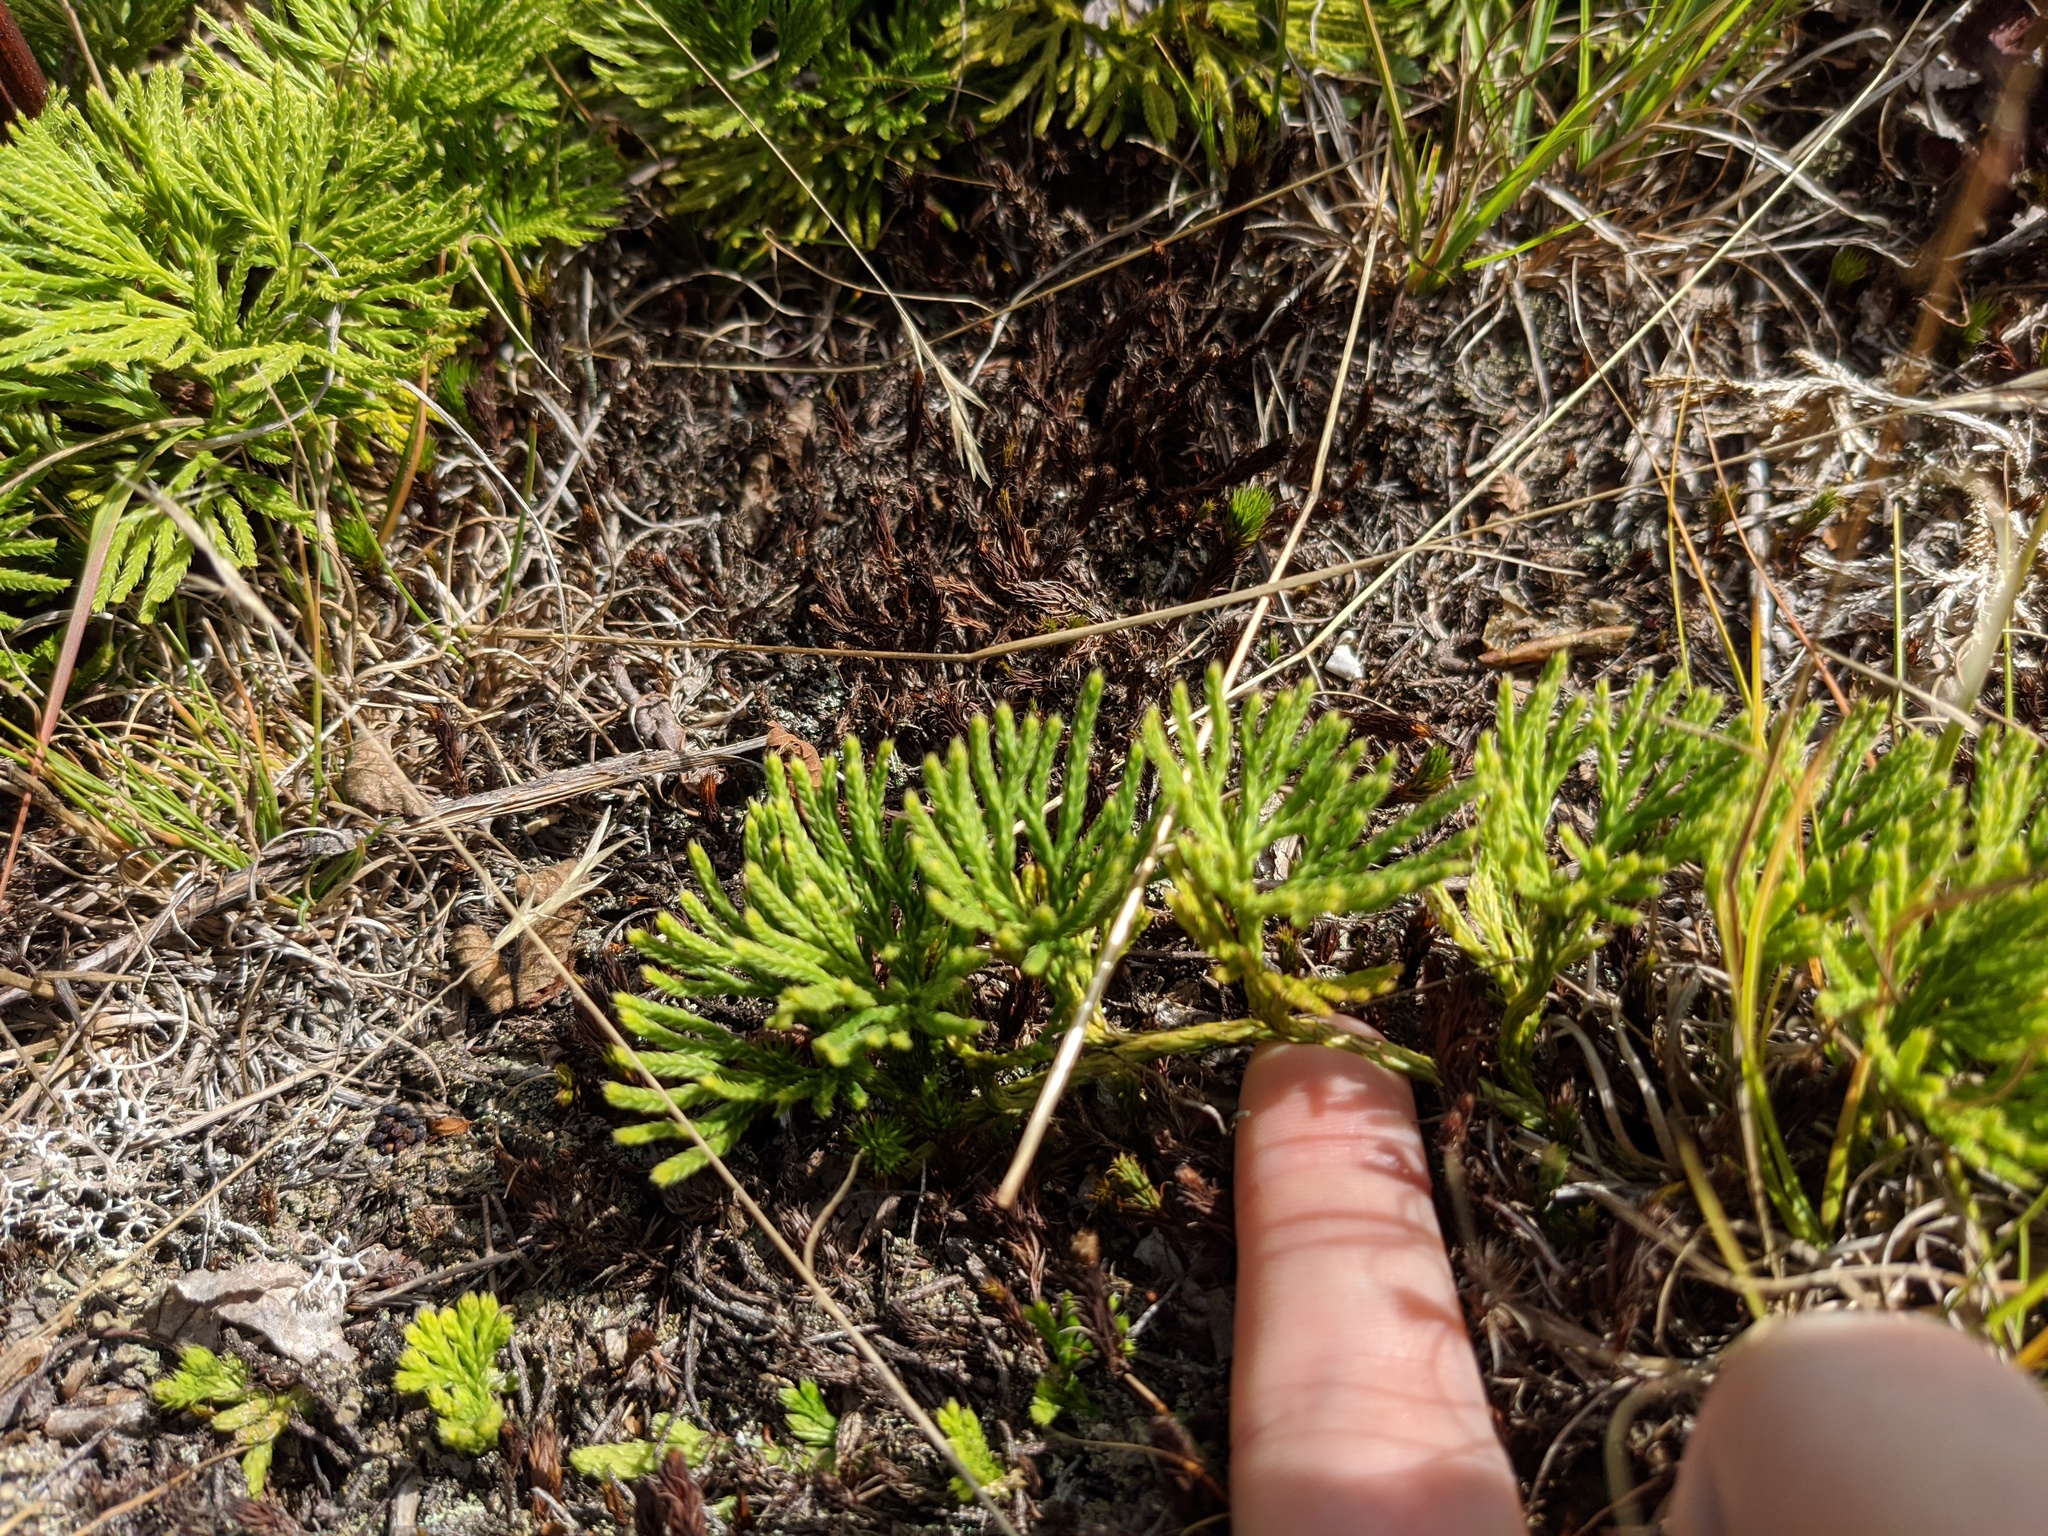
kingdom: Plantae
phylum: Tracheophyta
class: Lycopodiopsida
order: Lycopodiales
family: Lycopodiaceae
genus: Diphasiastrum
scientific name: Diphasiastrum tristachyum
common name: Blue ground-cedar
